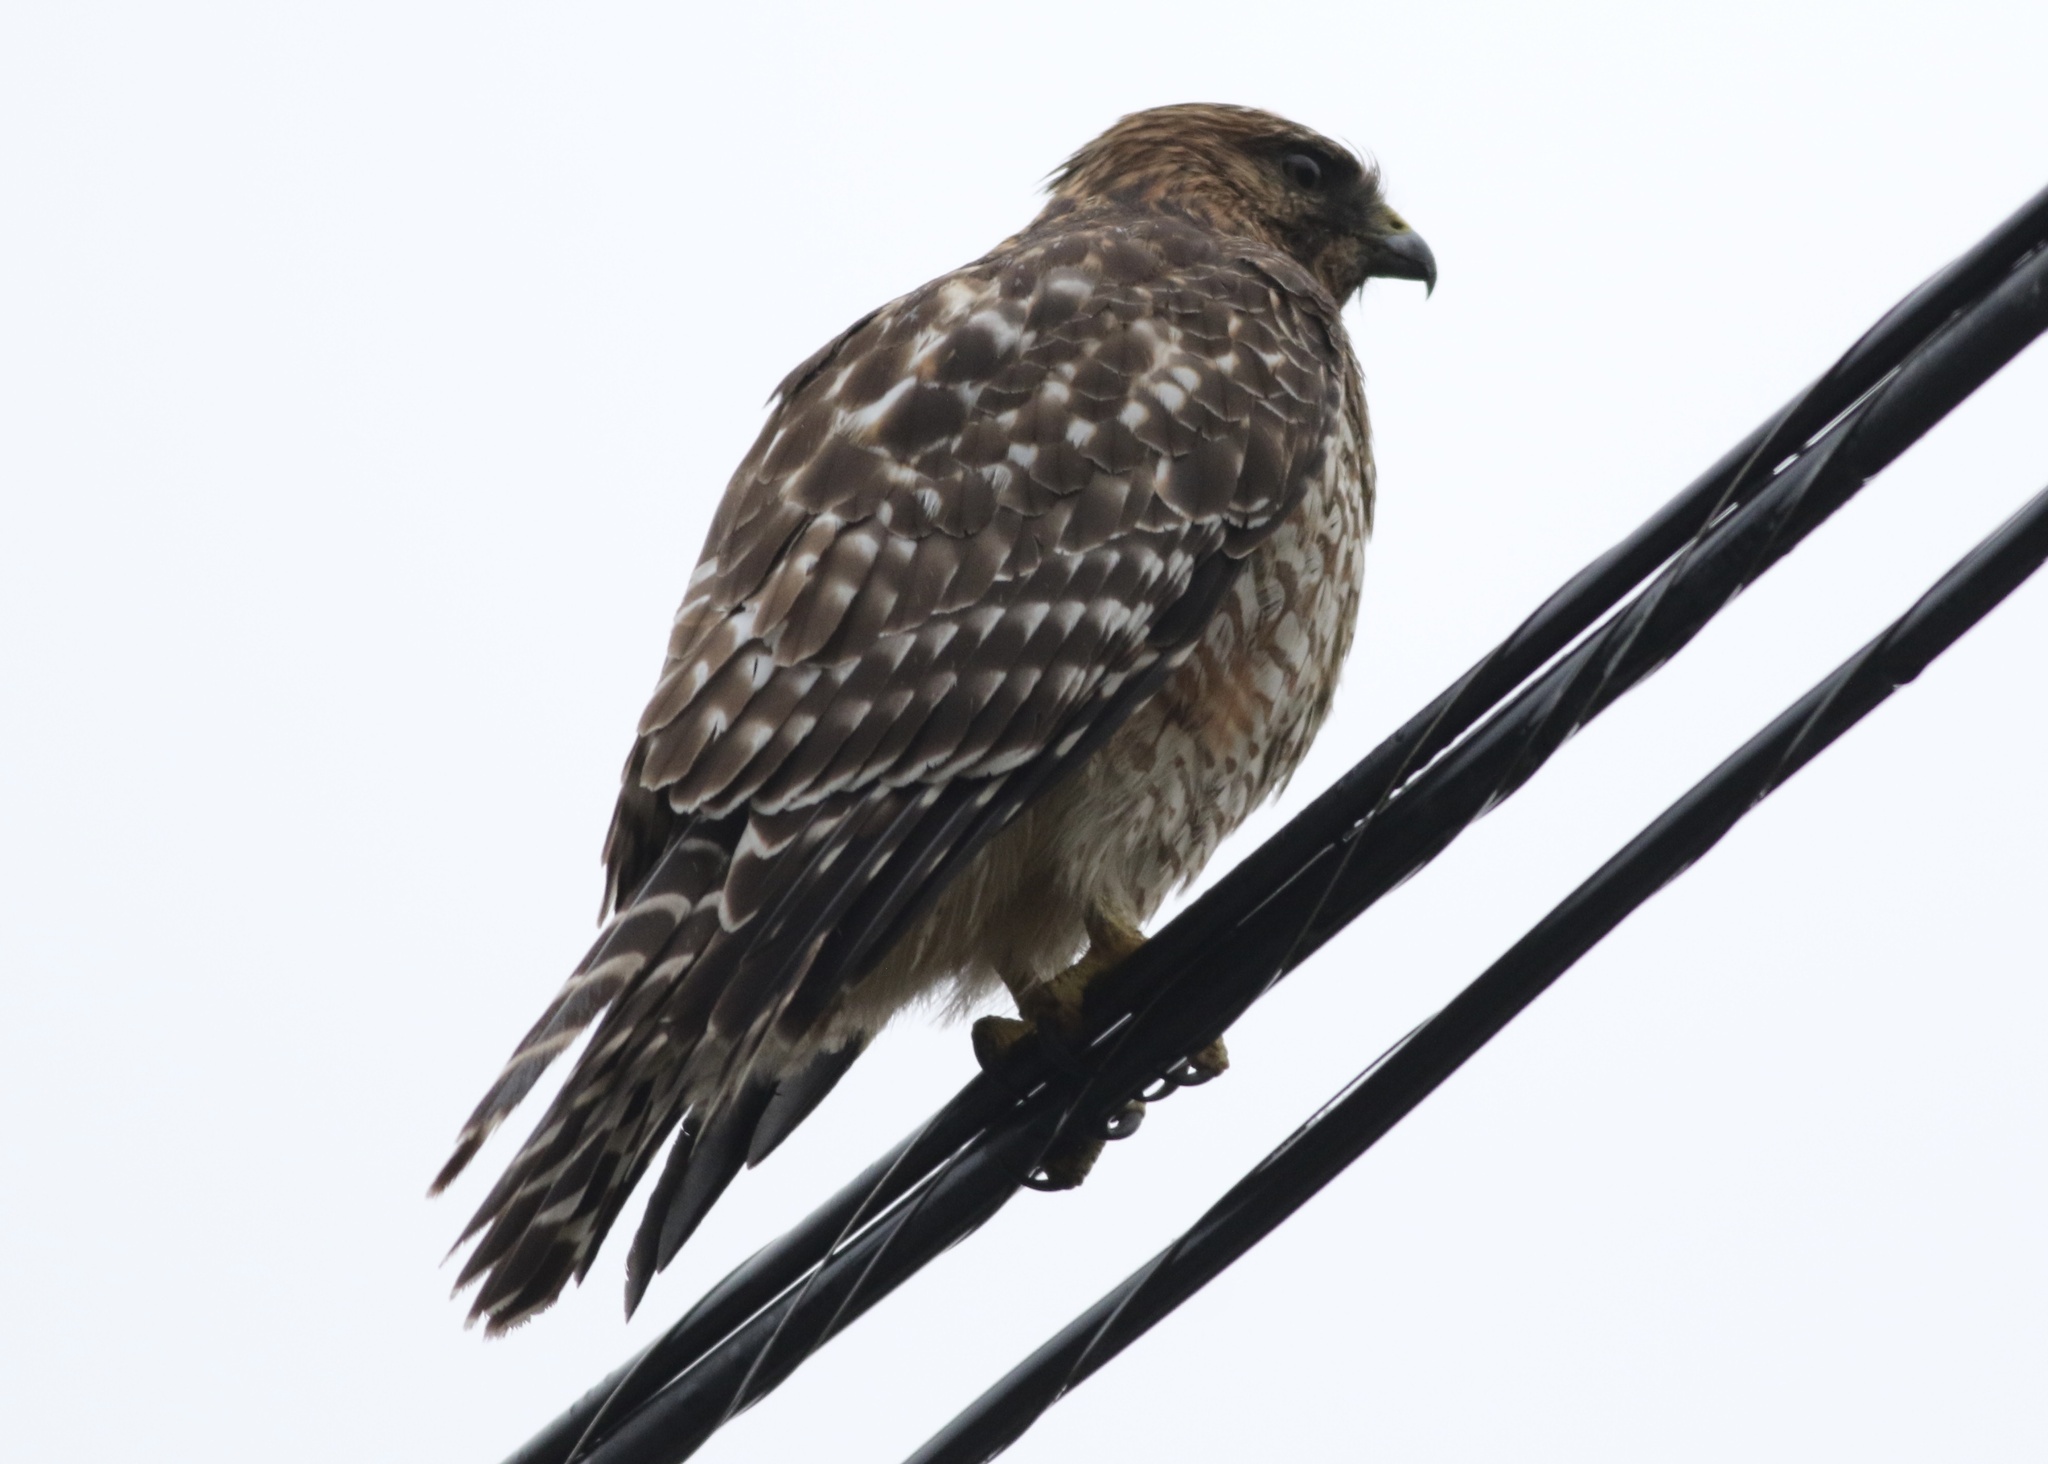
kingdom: Animalia
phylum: Chordata
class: Aves
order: Accipitriformes
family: Accipitridae
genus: Buteo
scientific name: Buteo lineatus
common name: Red-shouldered hawk
